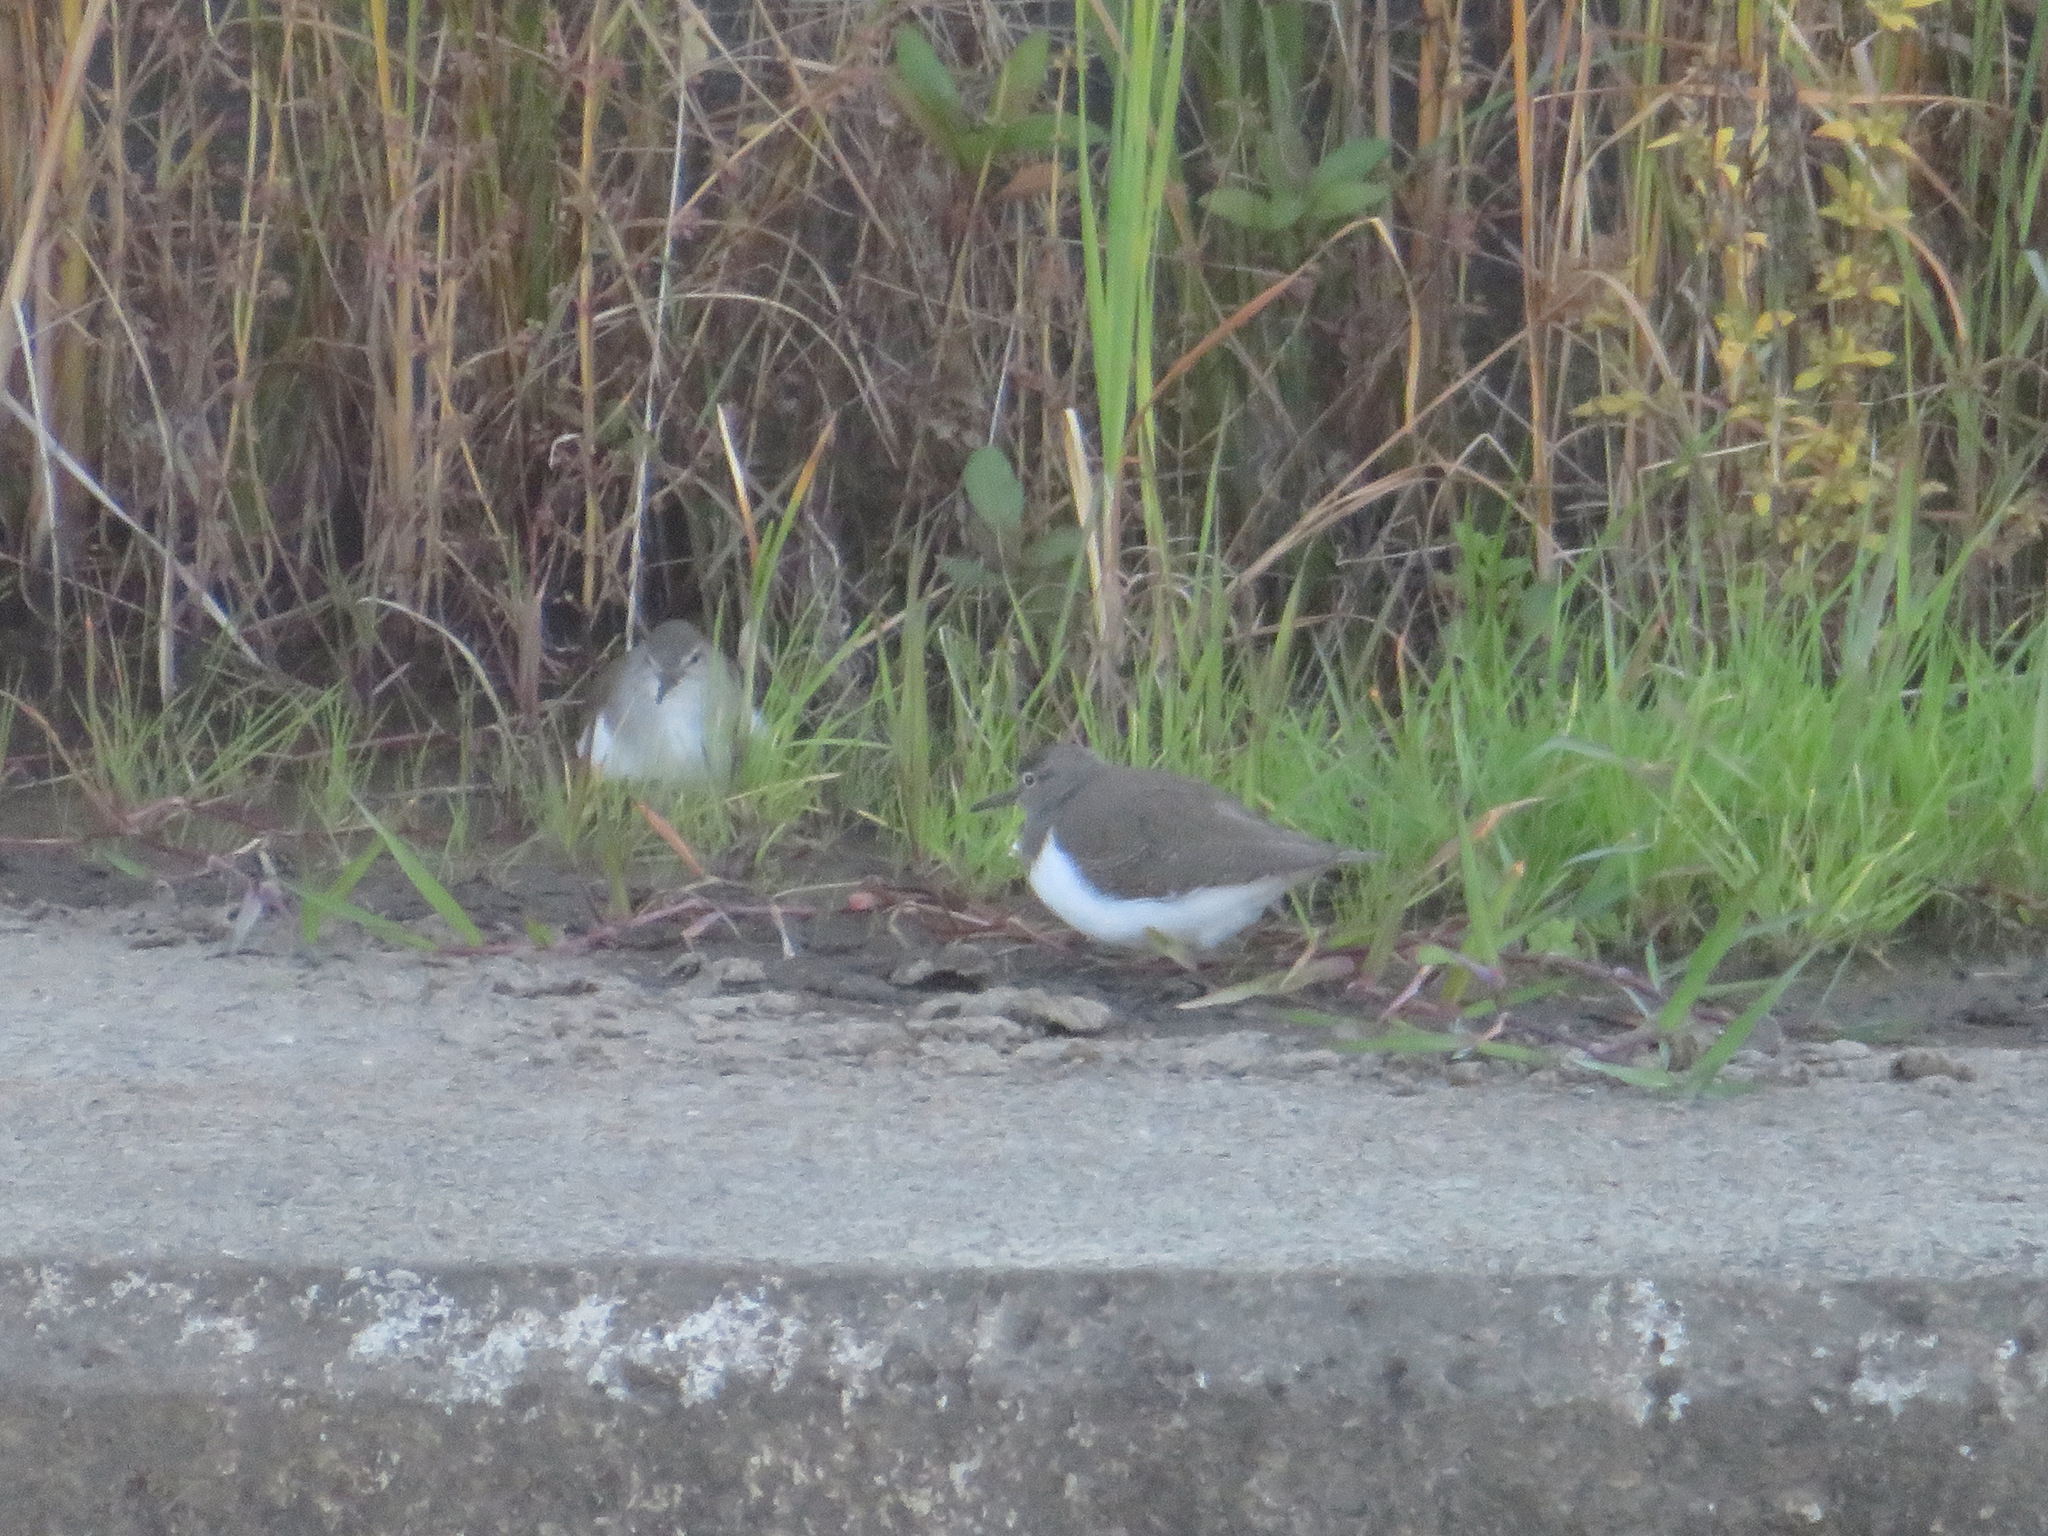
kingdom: Animalia
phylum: Chordata
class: Aves
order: Charadriiformes
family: Scolopacidae
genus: Actitis
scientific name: Actitis hypoleucos
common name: Common sandpiper
